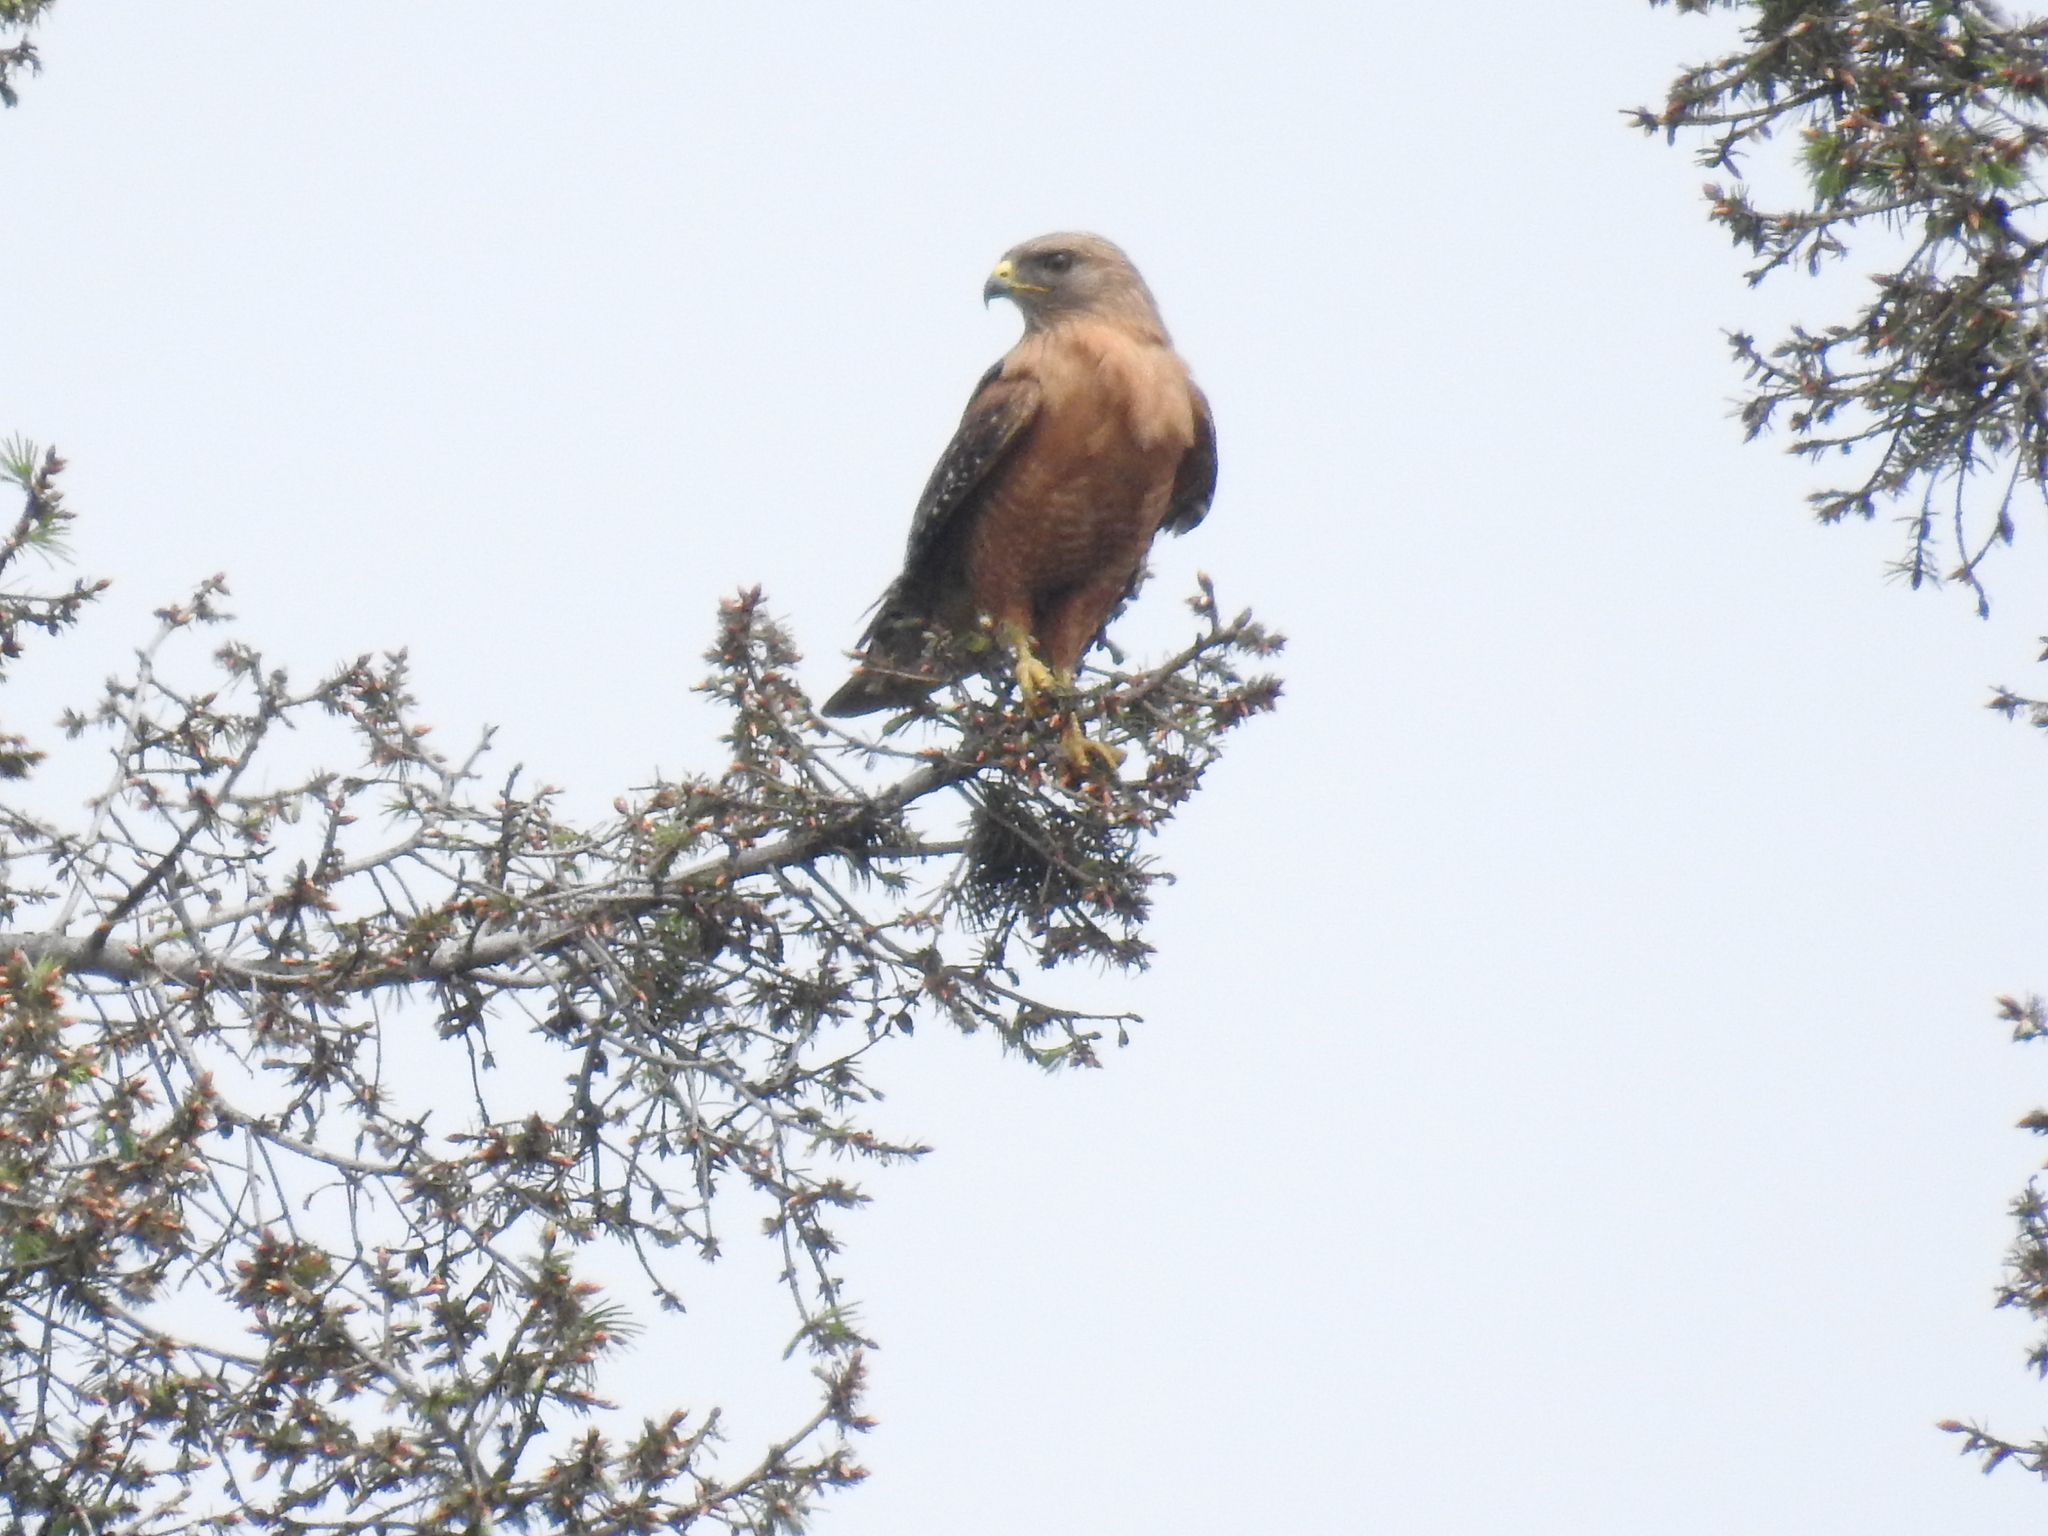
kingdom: Animalia
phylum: Chordata
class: Aves
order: Accipitriformes
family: Accipitridae
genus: Buteo
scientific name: Buteo lineatus
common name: Red-shouldered hawk
